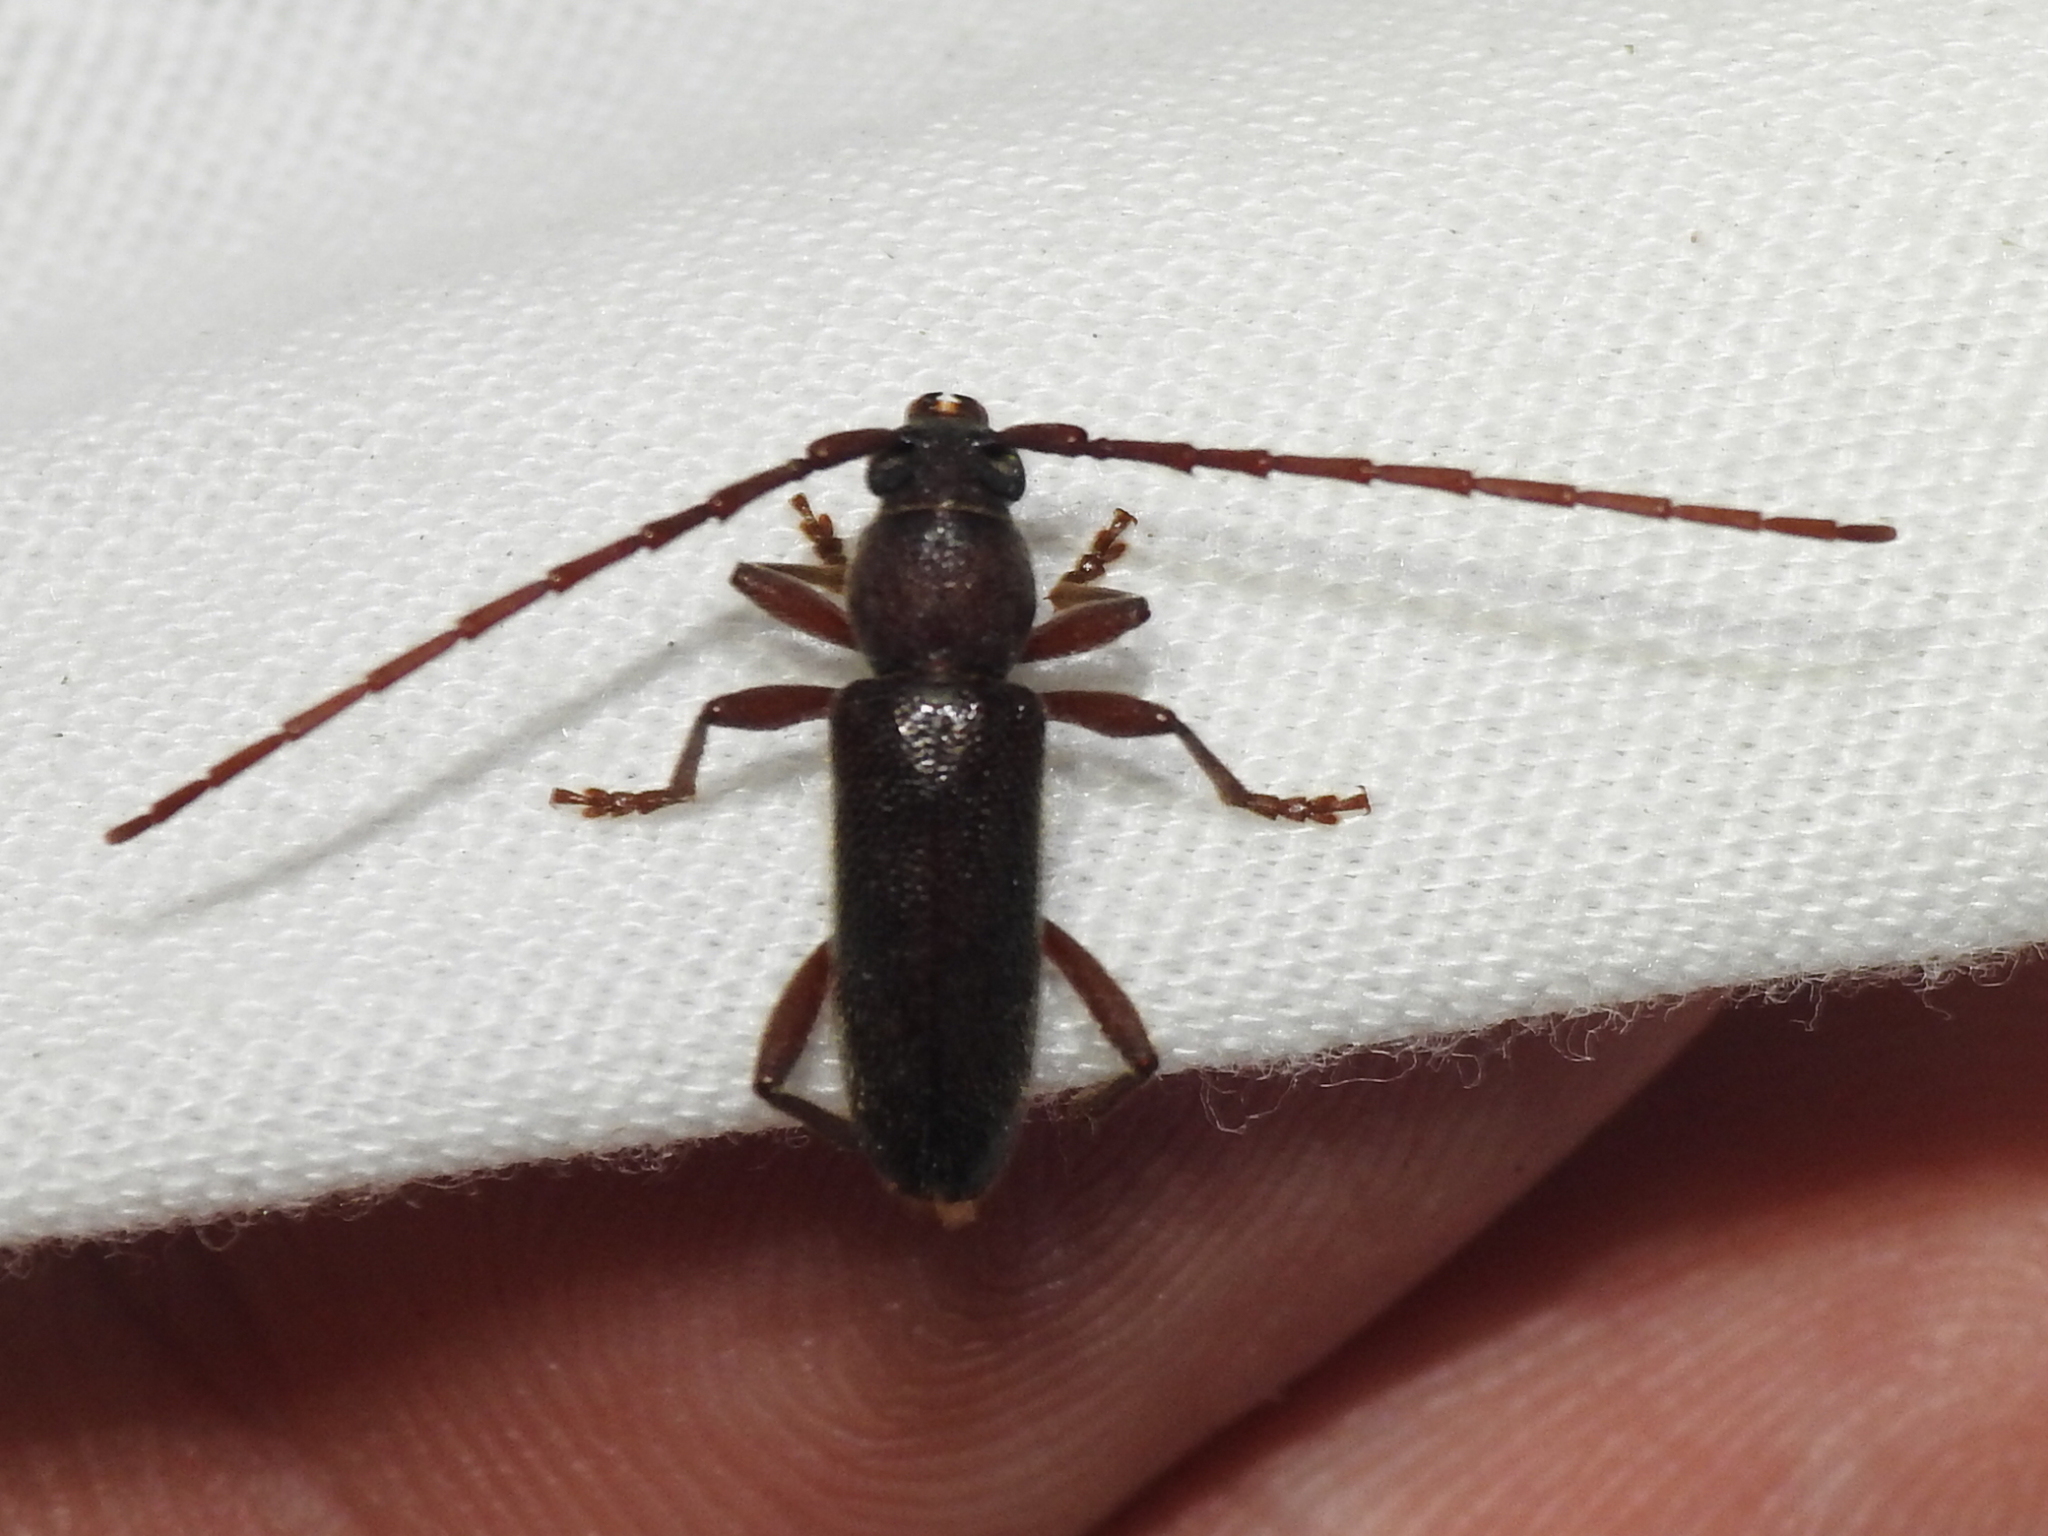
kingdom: Animalia
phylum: Arthropoda
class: Insecta
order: Coleoptera
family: Cerambycidae
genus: Anelaphus
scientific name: Anelaphus moestus
